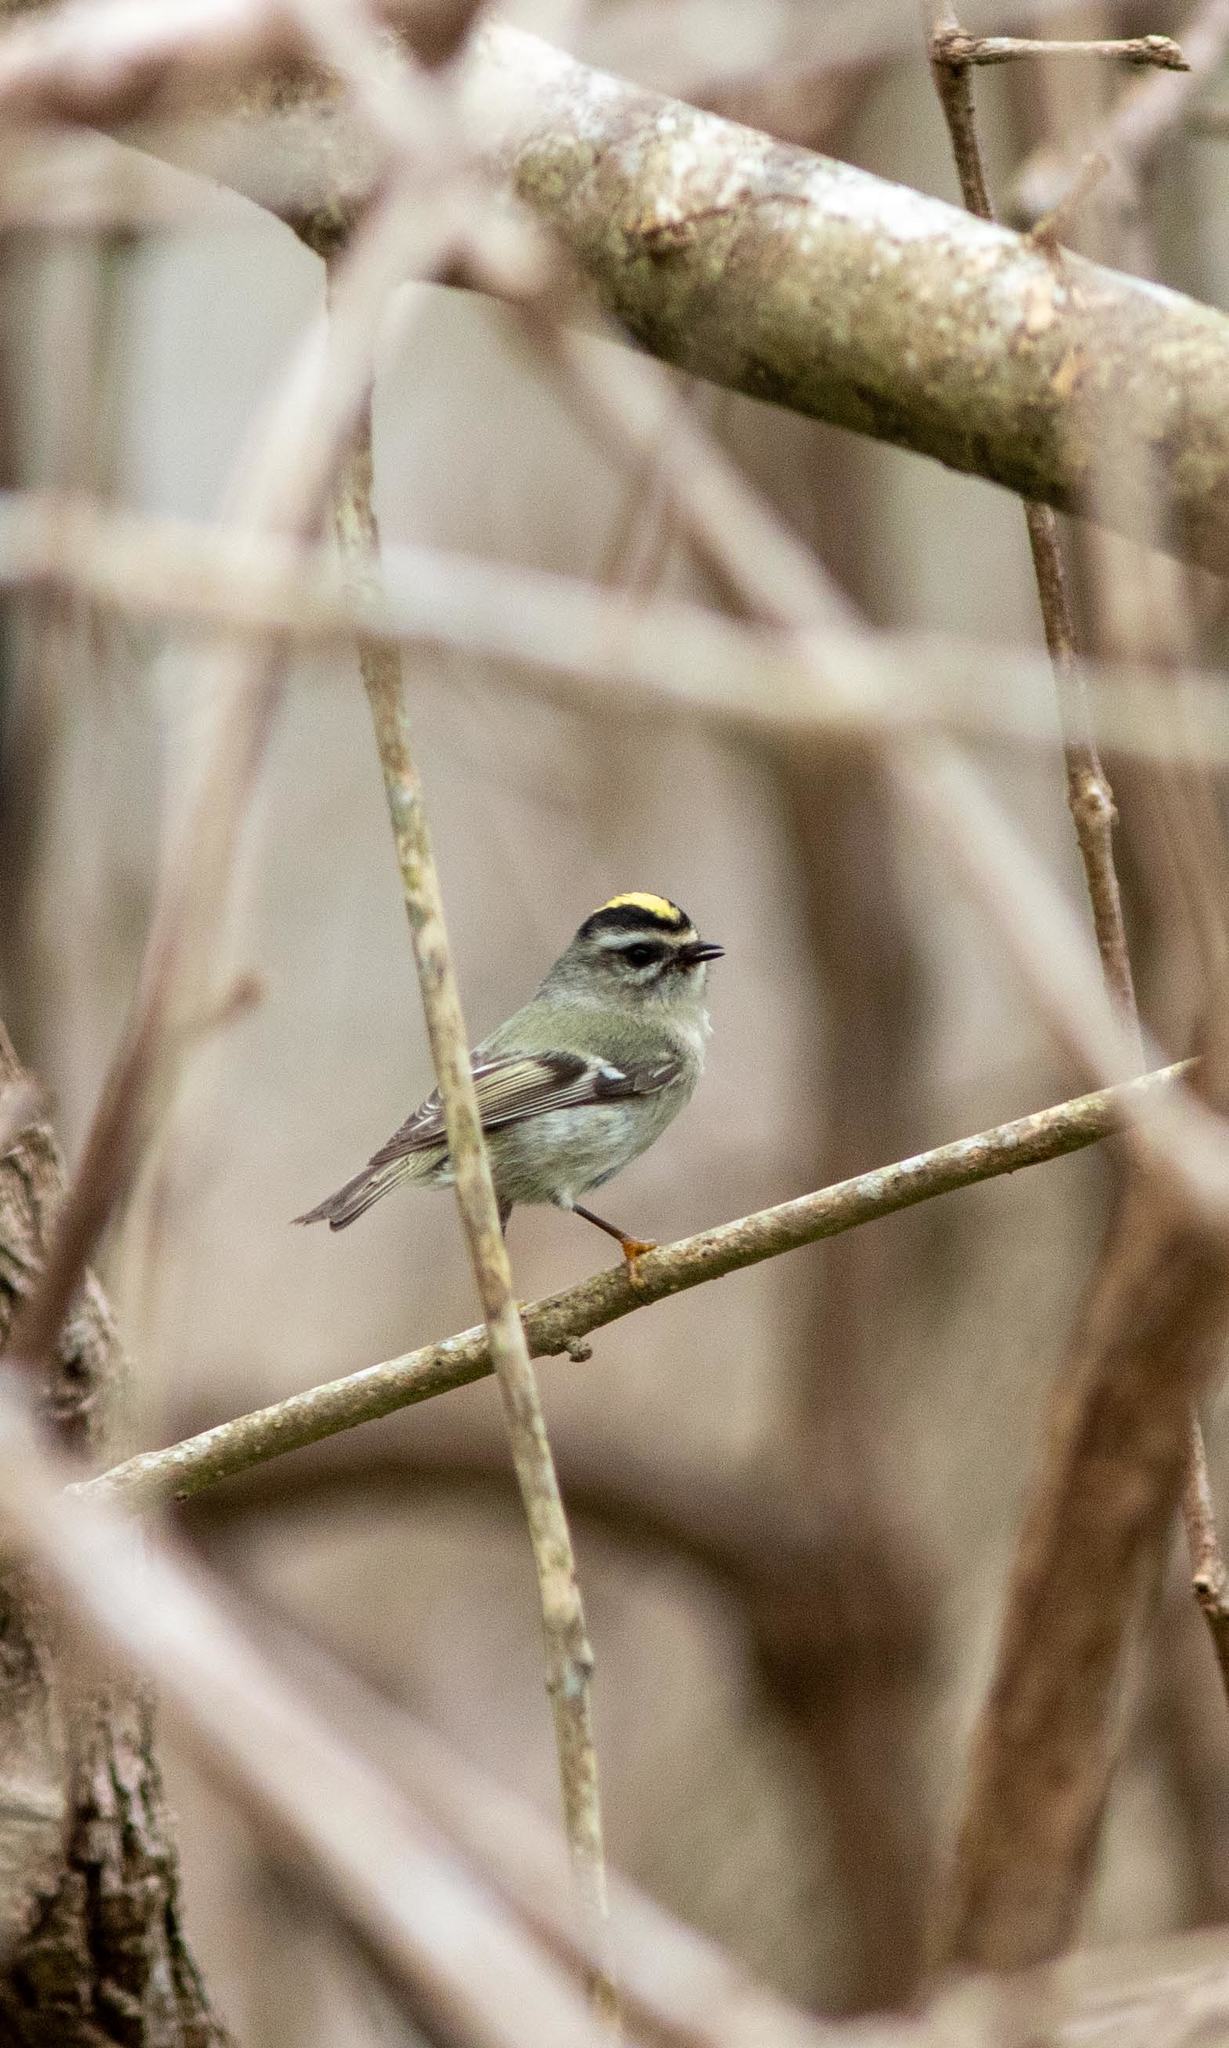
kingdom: Animalia
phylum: Chordata
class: Aves
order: Passeriformes
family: Regulidae
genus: Regulus
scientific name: Regulus satrapa
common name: Golden-crowned kinglet
